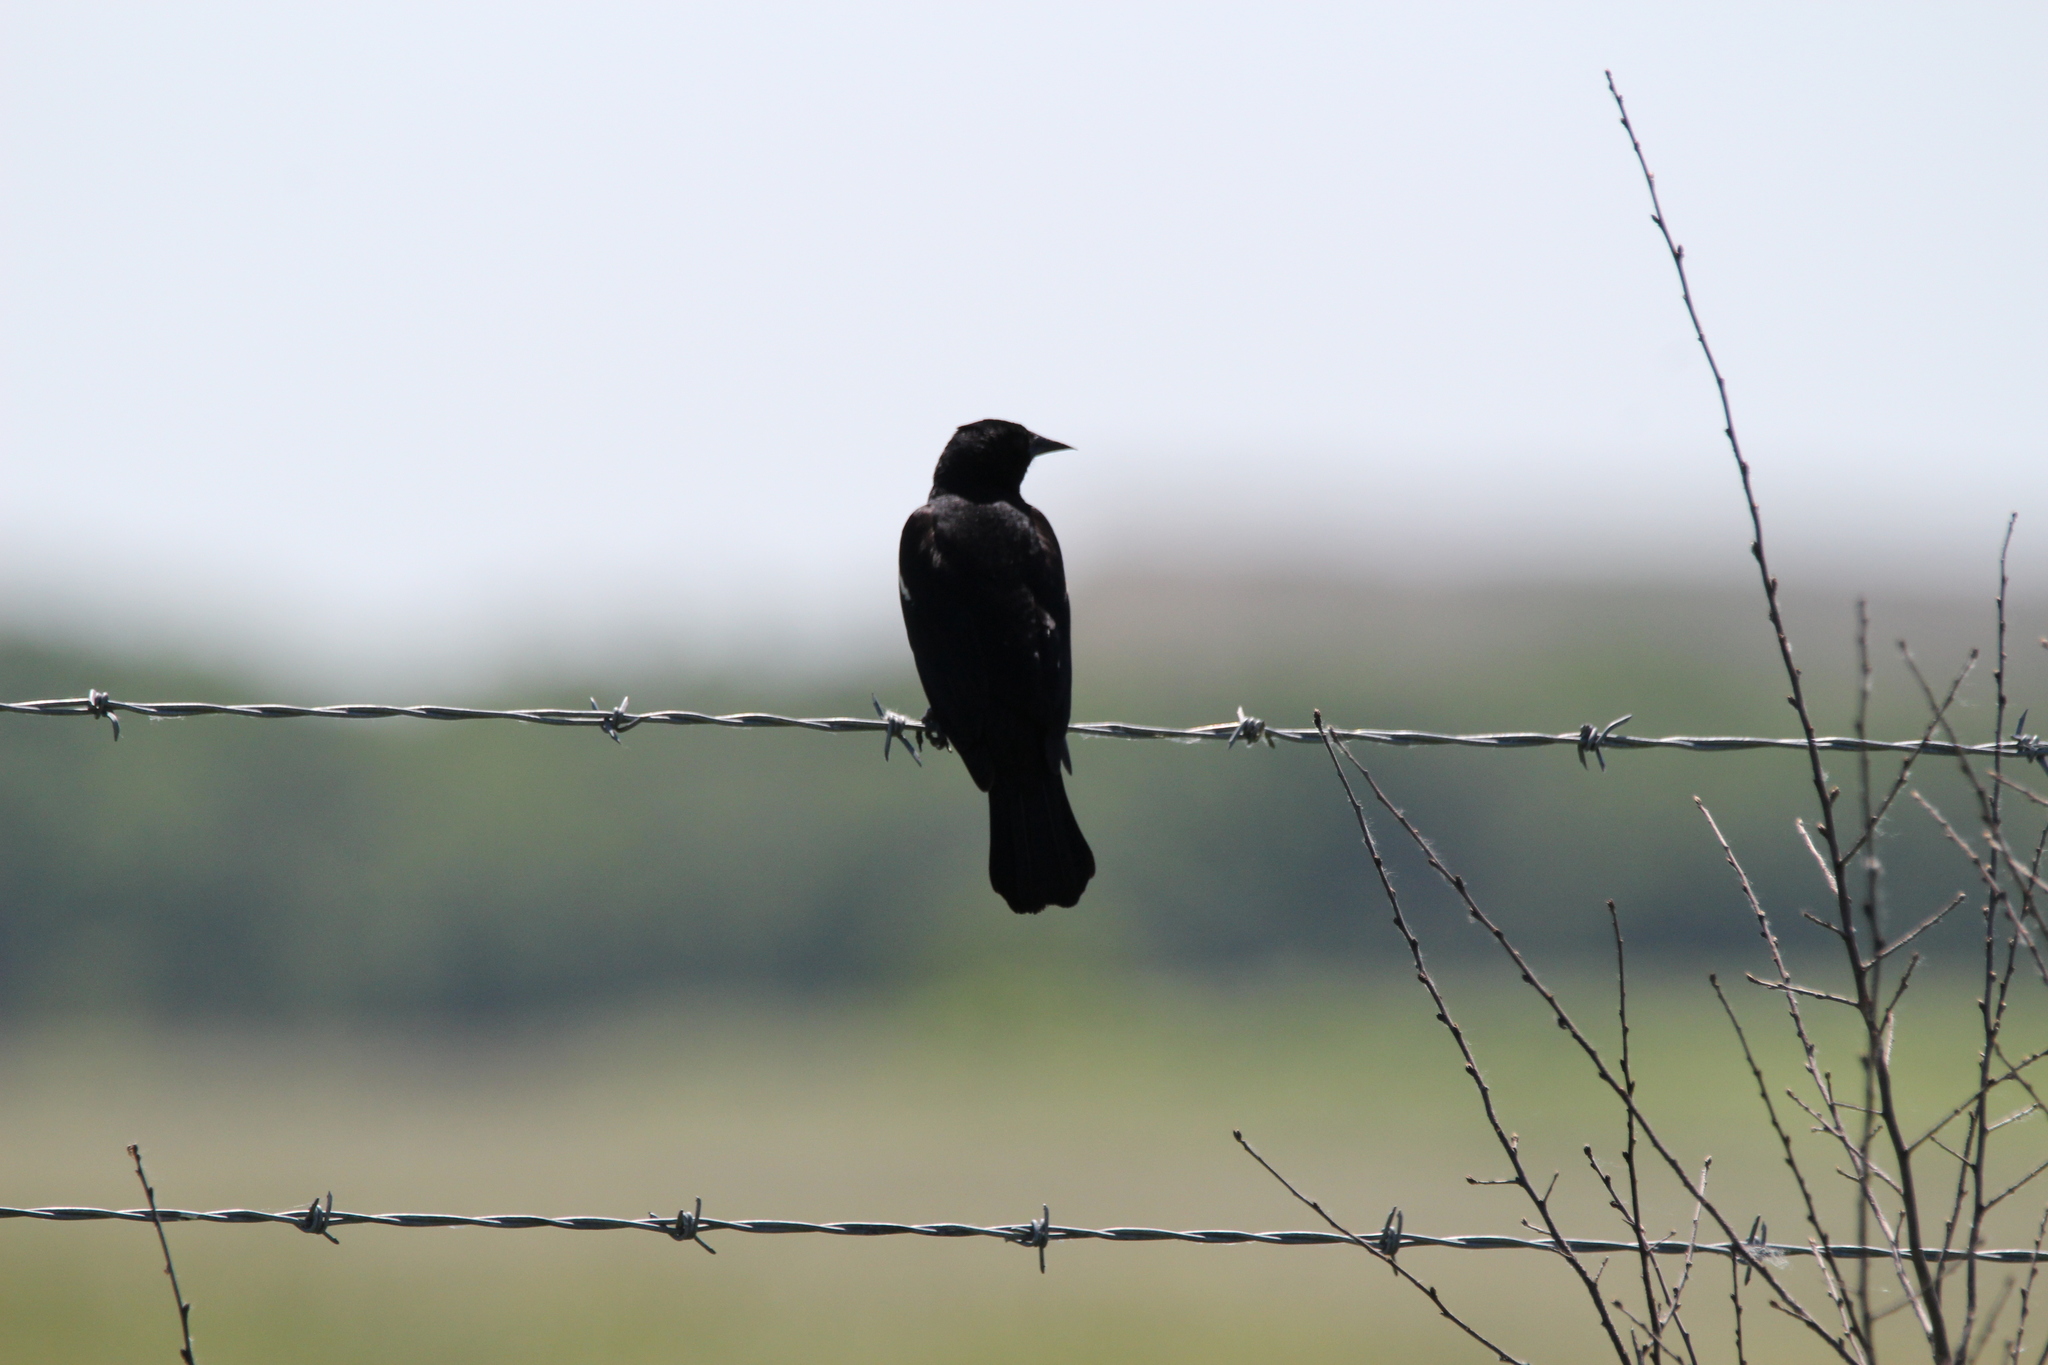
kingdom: Animalia
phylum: Chordata
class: Aves
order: Passeriformes
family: Icteridae
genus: Agelaius
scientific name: Agelaius phoeniceus
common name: Red-winged blackbird
